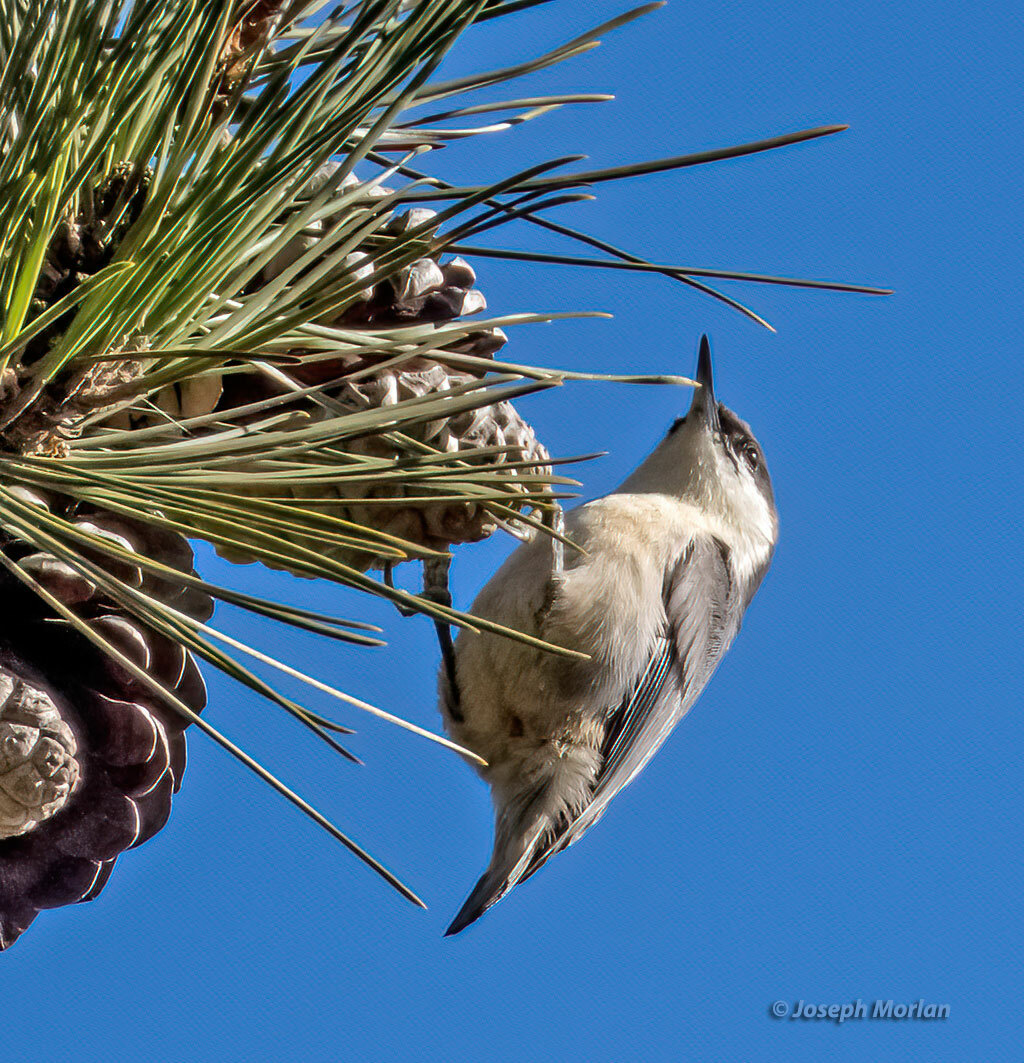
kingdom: Animalia
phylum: Chordata
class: Aves
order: Passeriformes
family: Sittidae
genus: Sitta
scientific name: Sitta pygmaea
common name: Pygmy nuthatch
